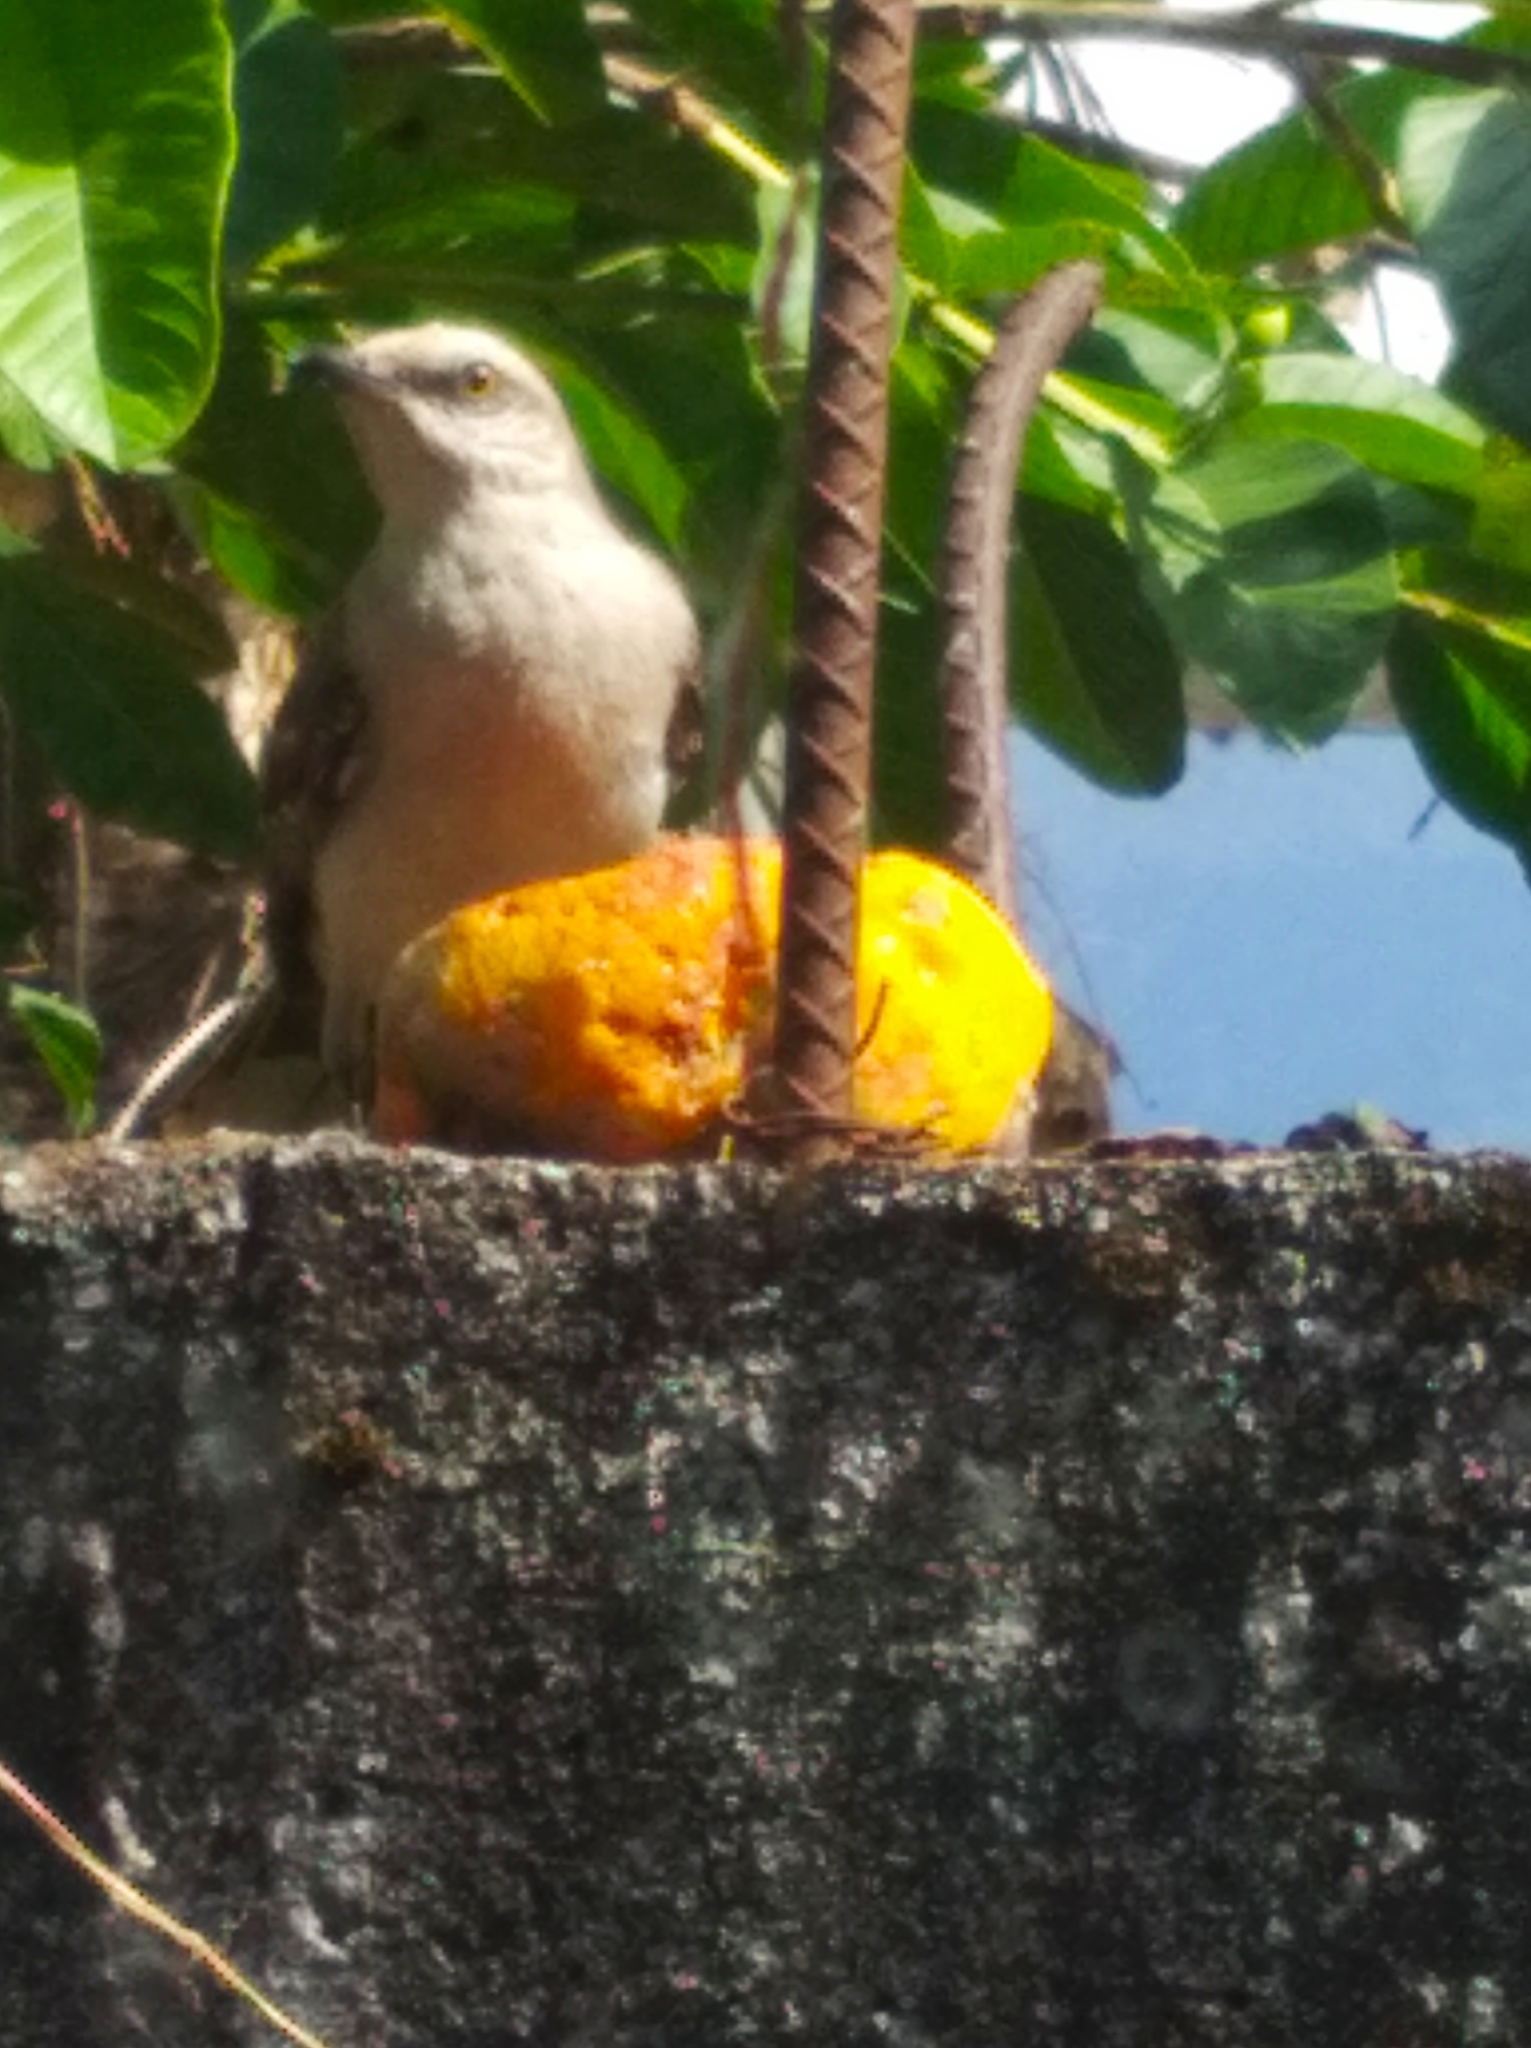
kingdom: Animalia
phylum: Chordata
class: Aves
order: Passeriformes
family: Mimidae
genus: Mimus
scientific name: Mimus gilvus
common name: Tropical mockingbird
